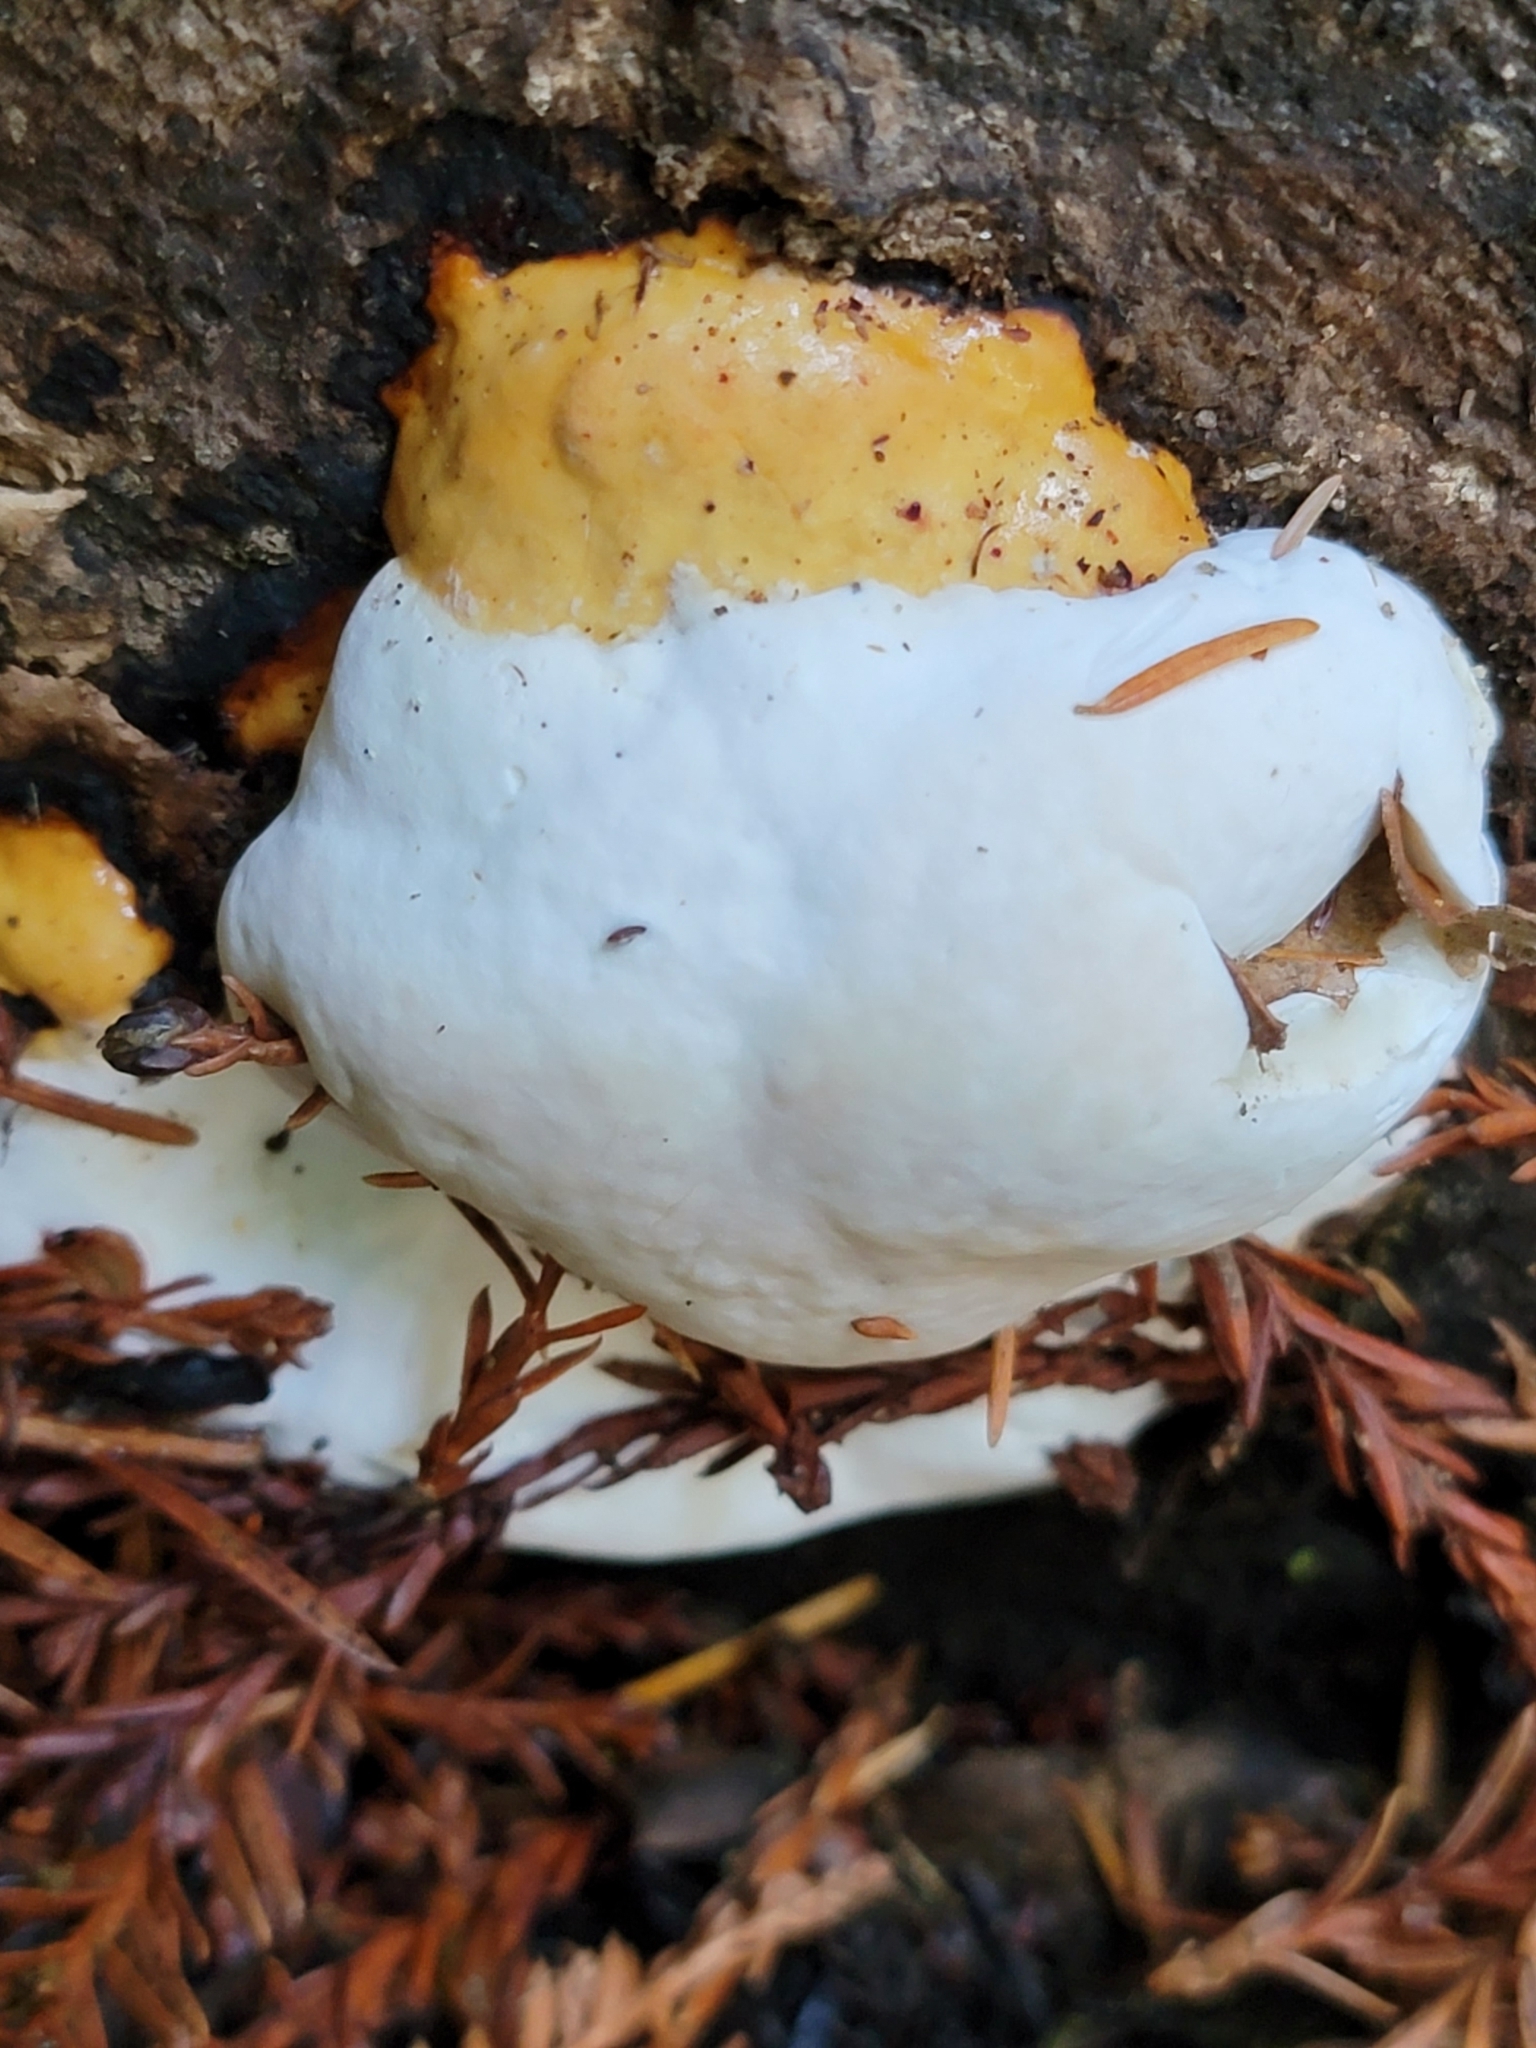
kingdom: Fungi
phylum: Basidiomycota
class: Agaricomycetes
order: Polyporales
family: Fomitopsidaceae
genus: Fomitopsis
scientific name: Fomitopsis mounceae
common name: Northern red belt
